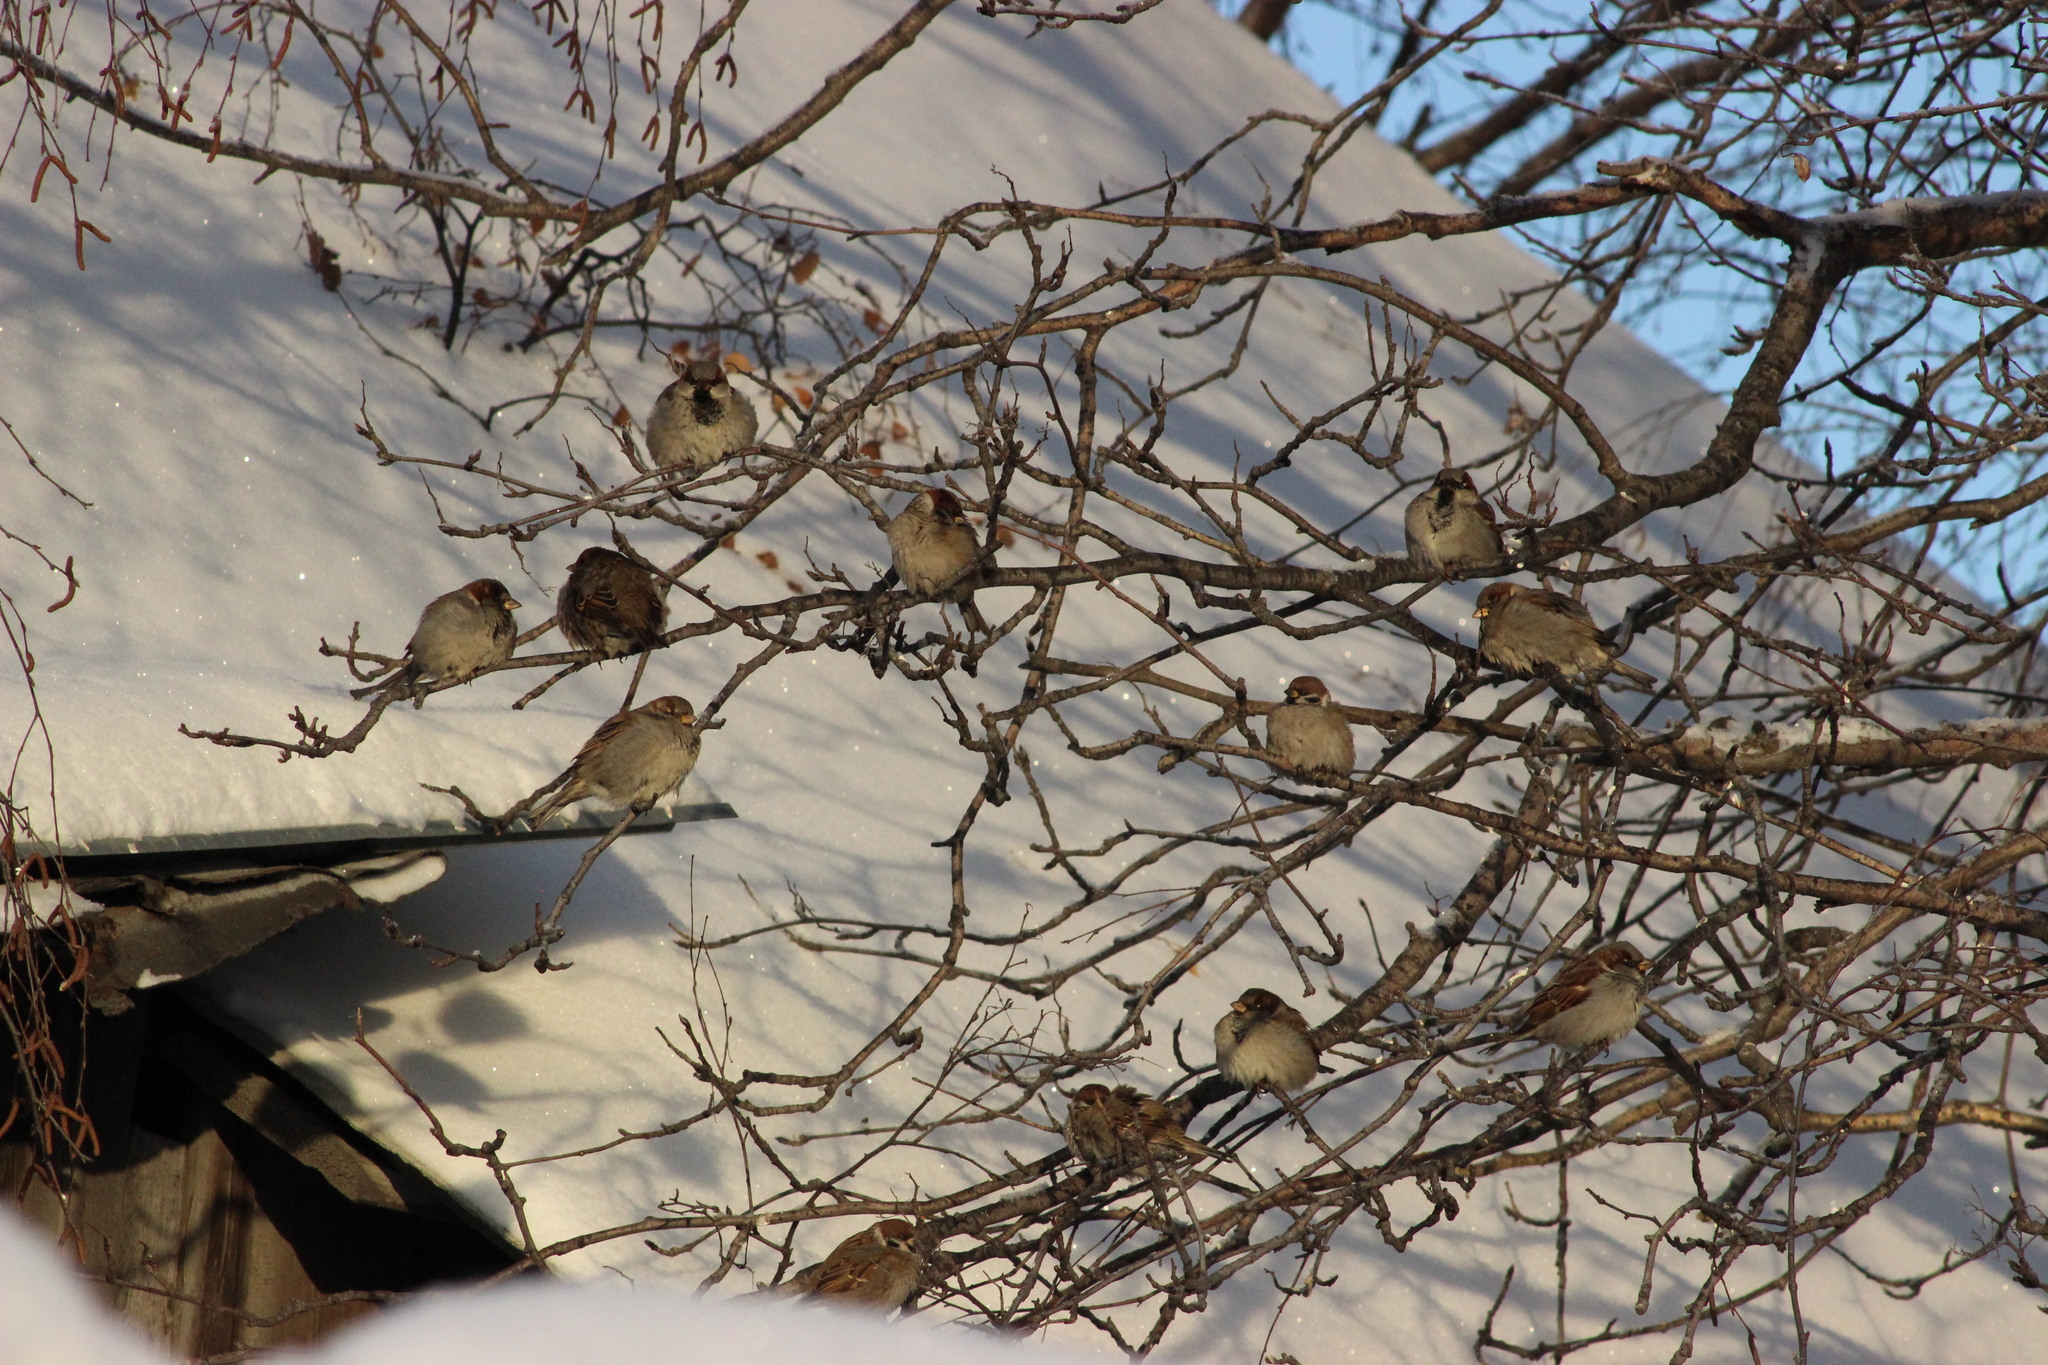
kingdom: Animalia
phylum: Chordata
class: Aves
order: Passeriformes
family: Passeridae
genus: Passer
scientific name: Passer montanus
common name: Eurasian tree sparrow
